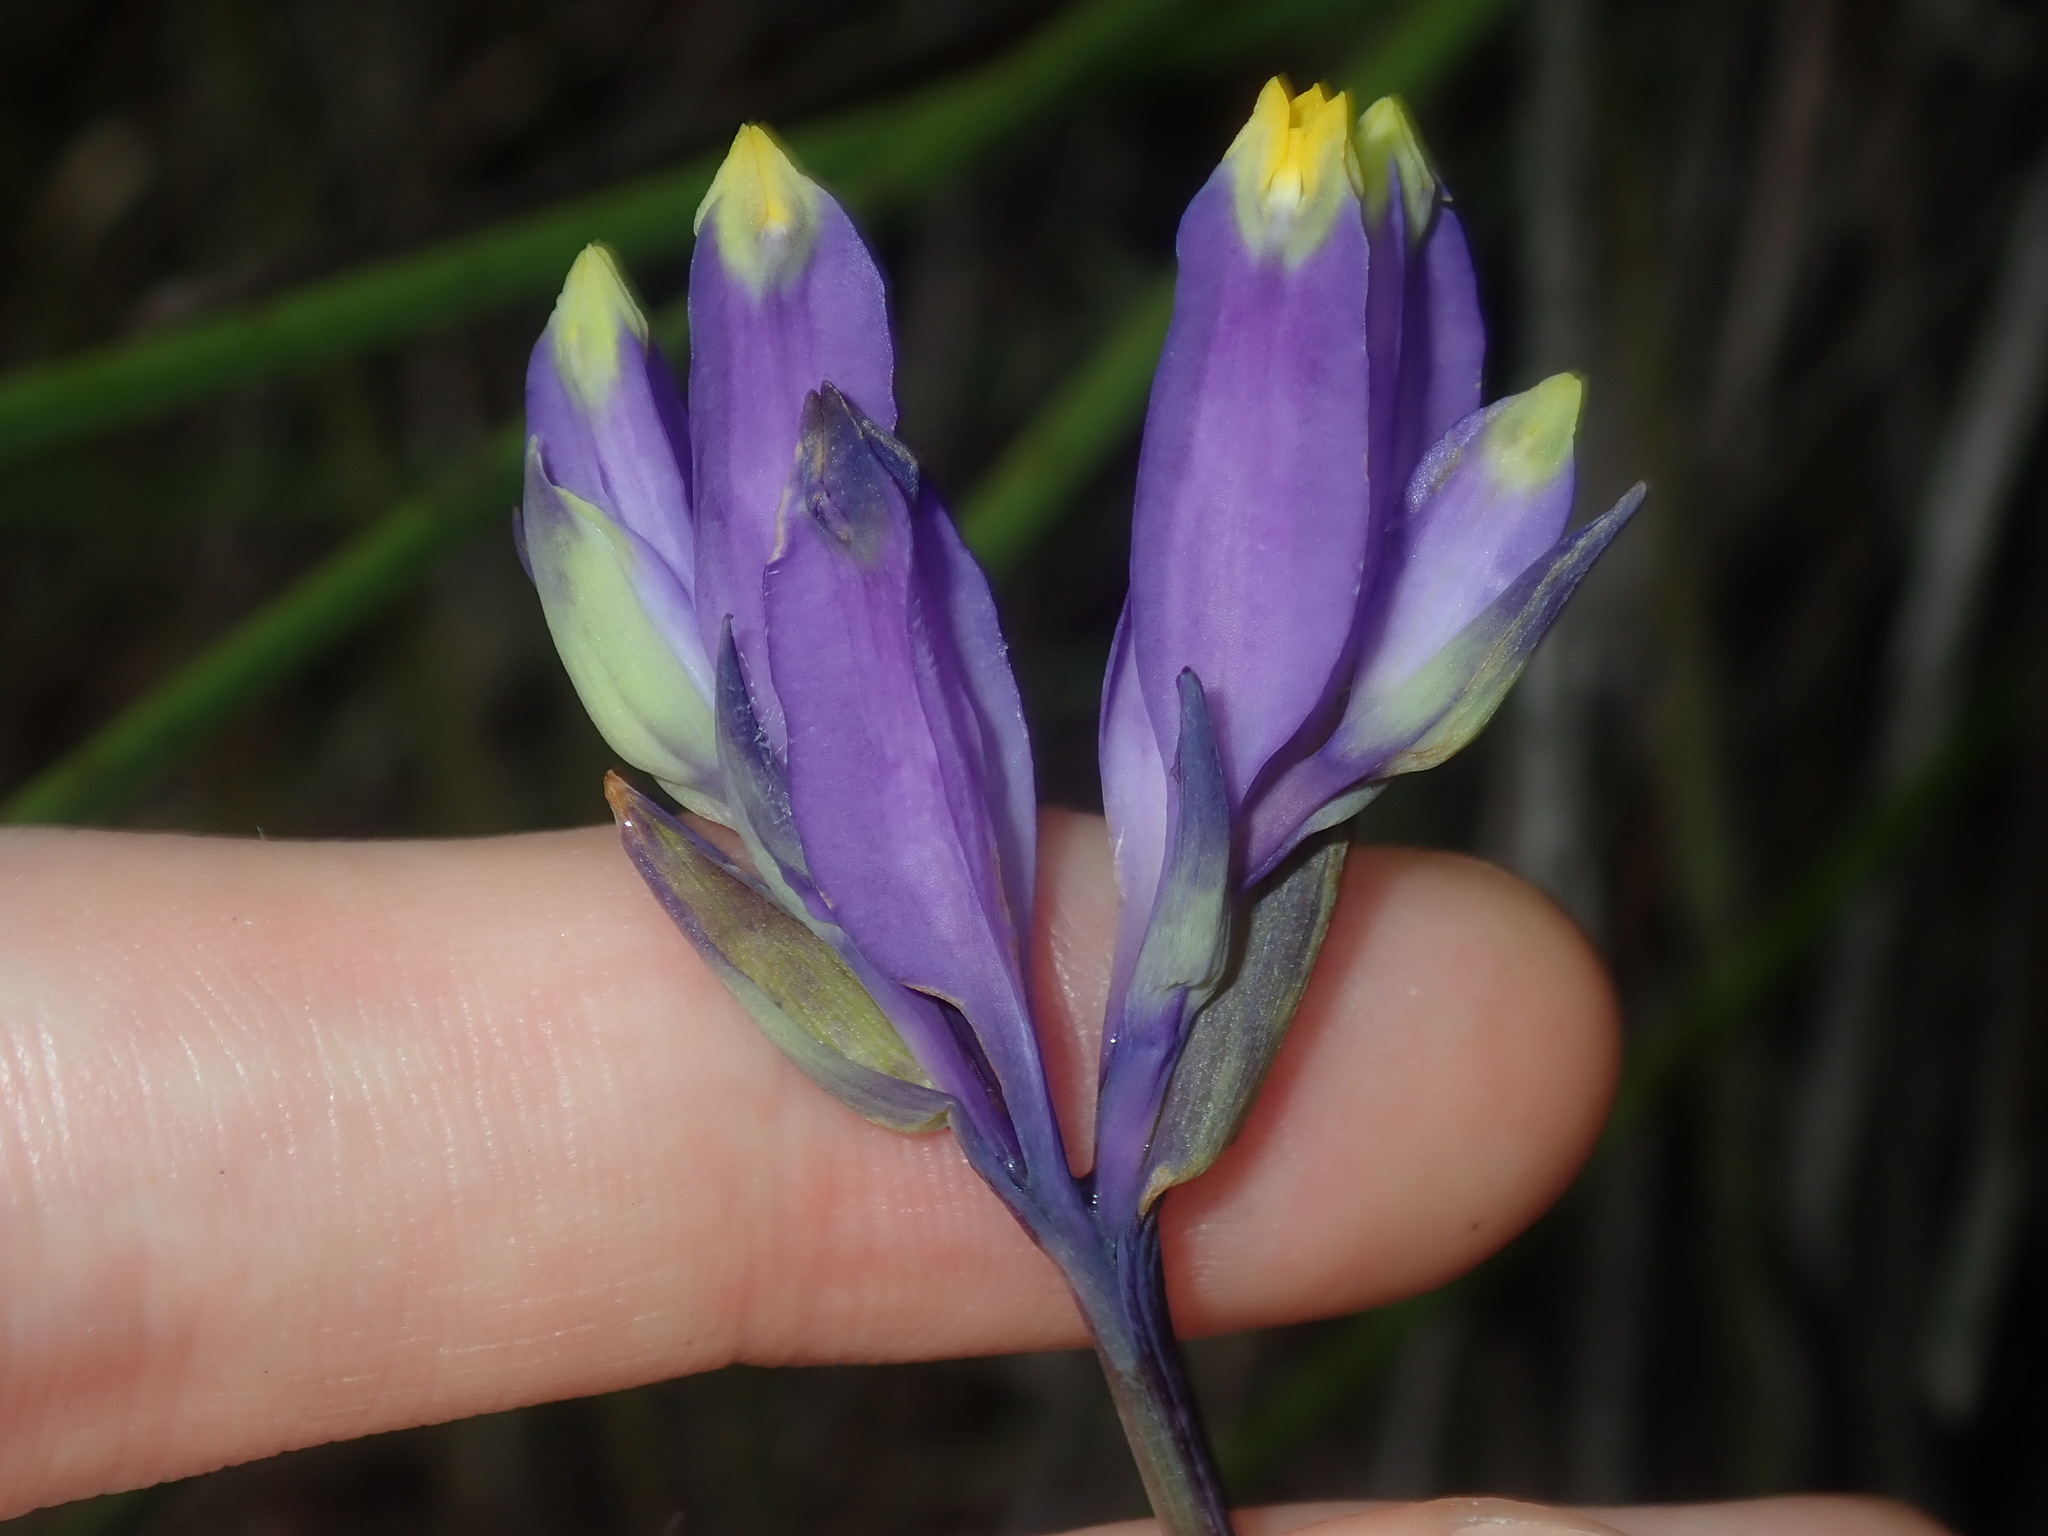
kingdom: Plantae
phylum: Tracheophyta
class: Liliopsida
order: Dioscoreales
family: Burmanniaceae
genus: Burmannia
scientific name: Burmannia disticha
